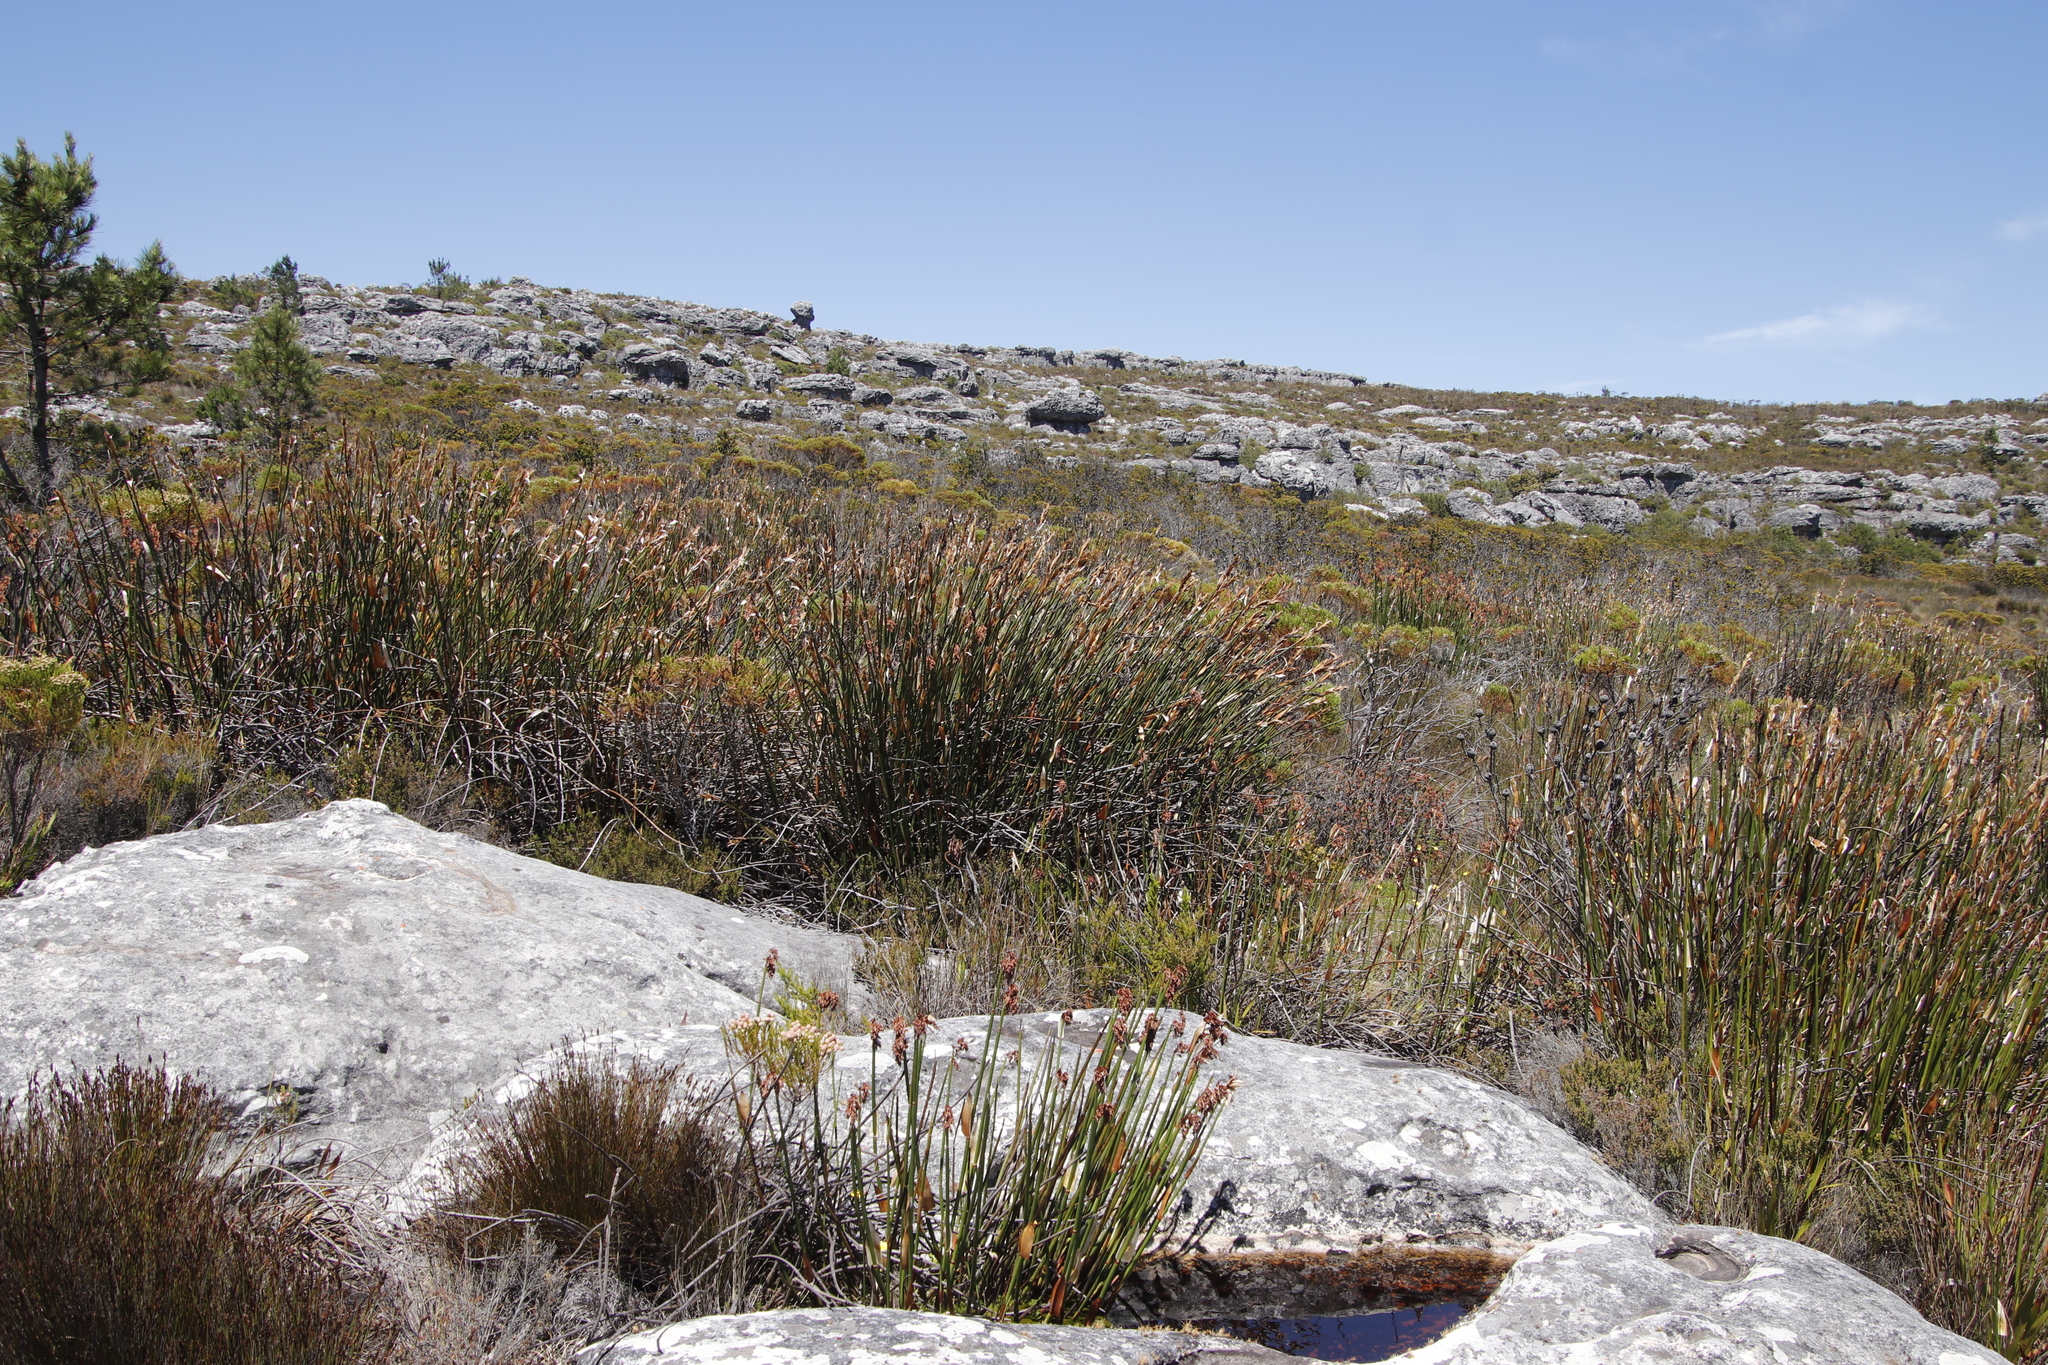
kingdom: Plantae
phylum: Tracheophyta
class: Liliopsida
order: Poales
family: Restionaceae
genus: Elegia
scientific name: Elegia mucronata
